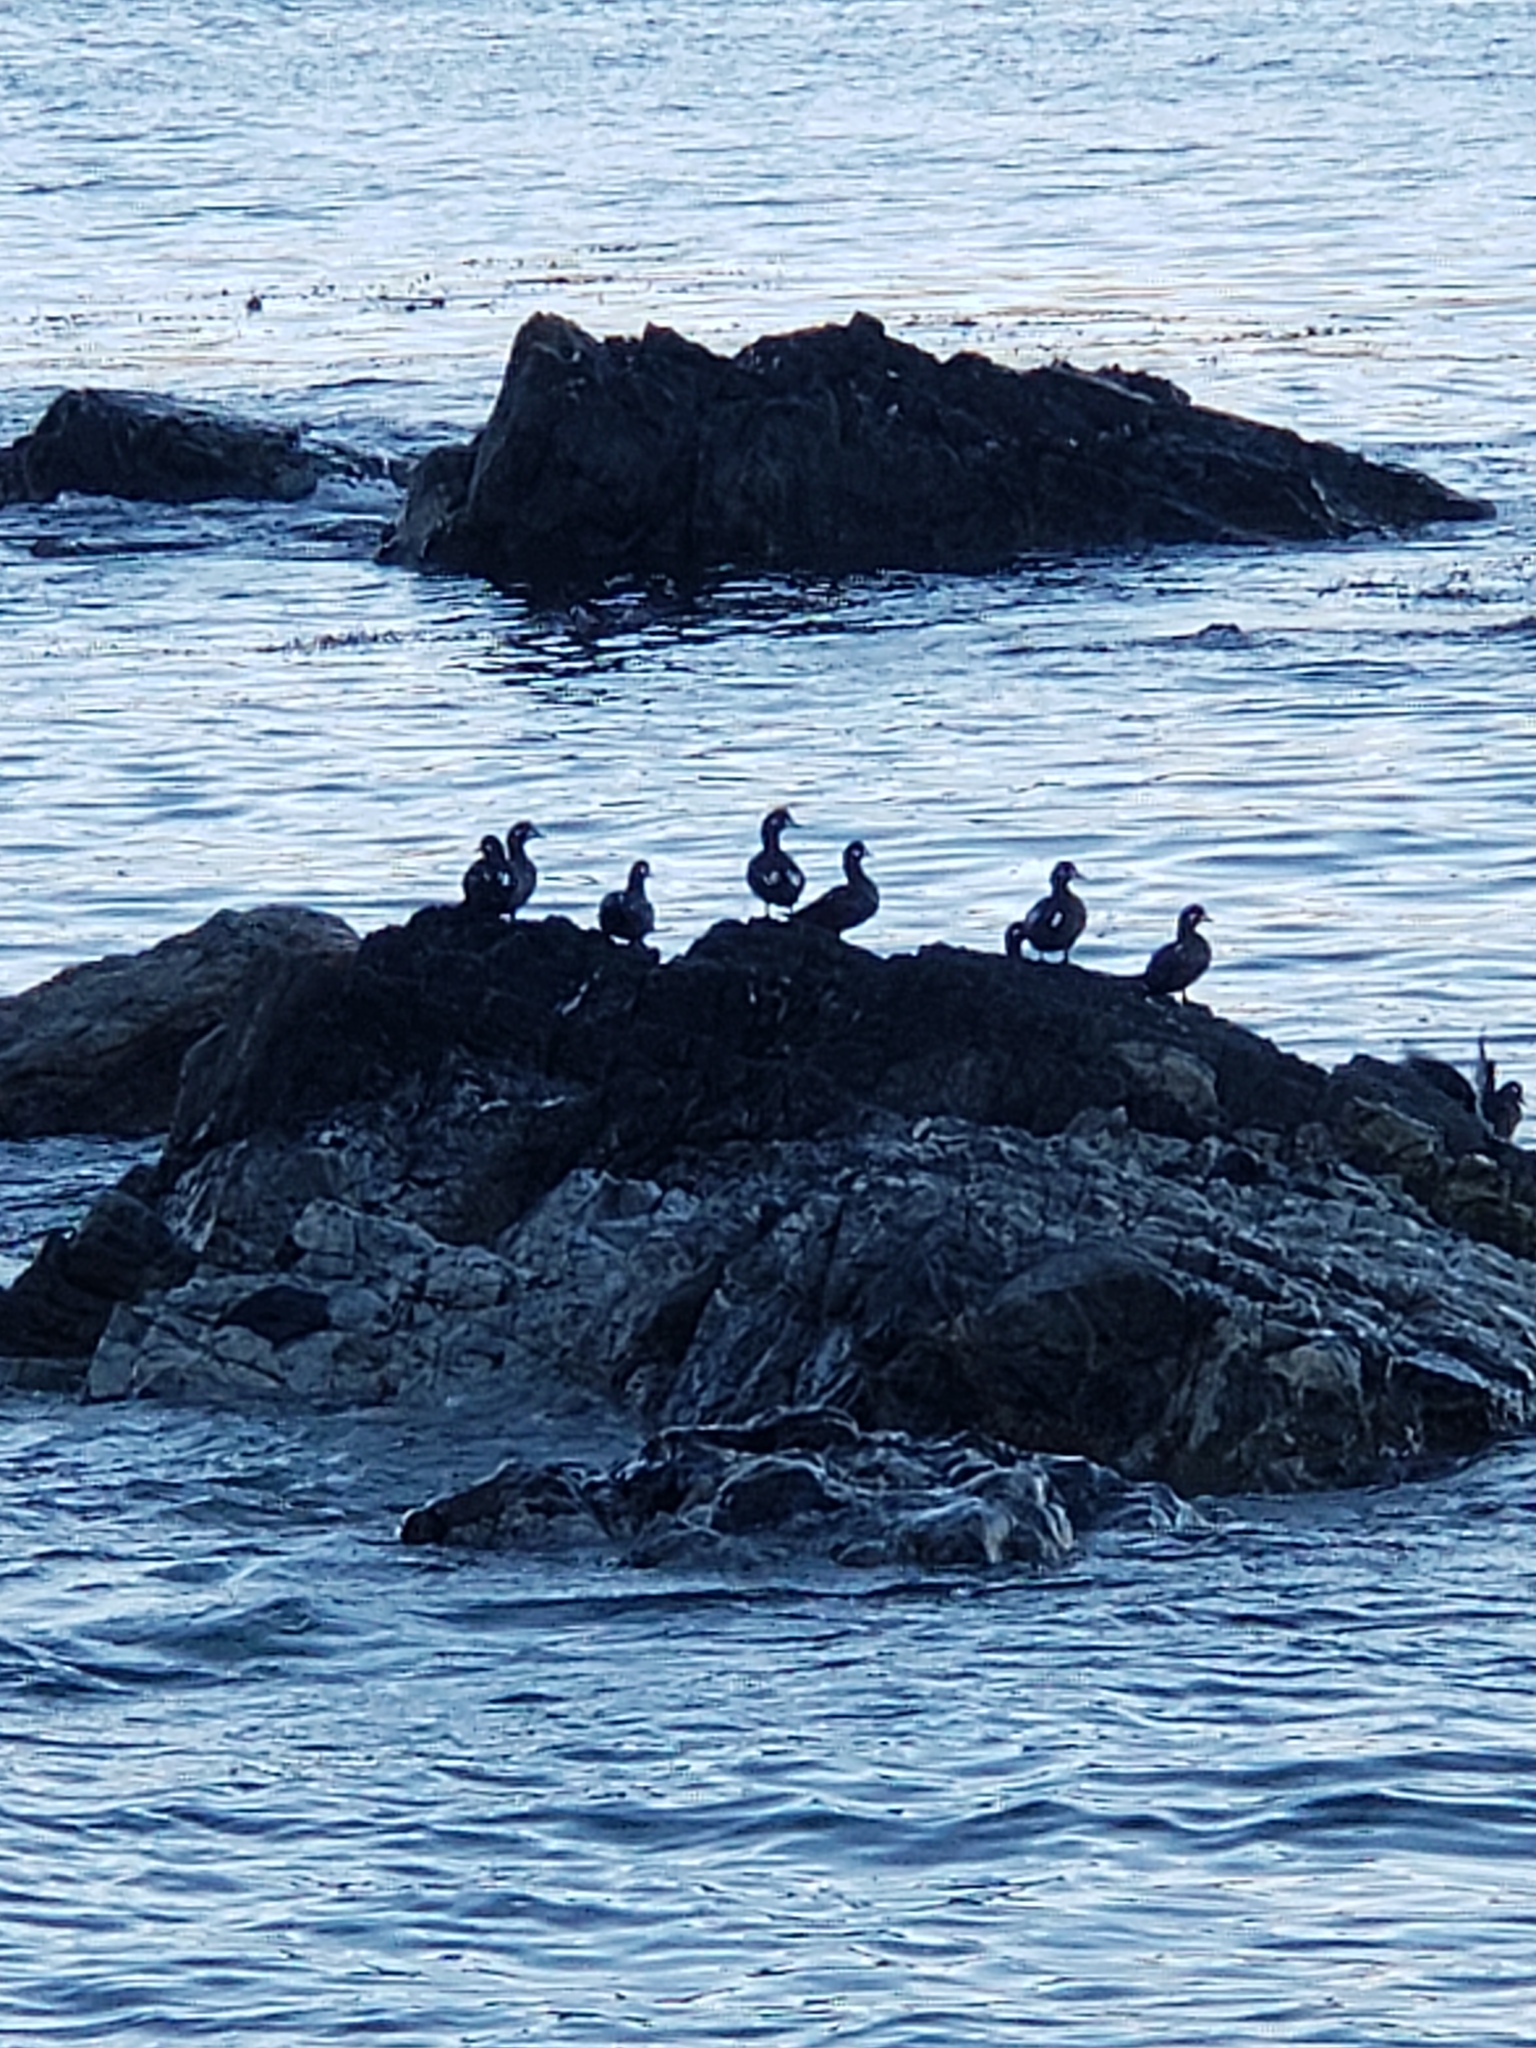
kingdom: Animalia
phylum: Chordata
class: Aves
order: Anseriformes
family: Anatidae
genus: Histrionicus
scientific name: Histrionicus histrionicus
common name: Harlequin duck
